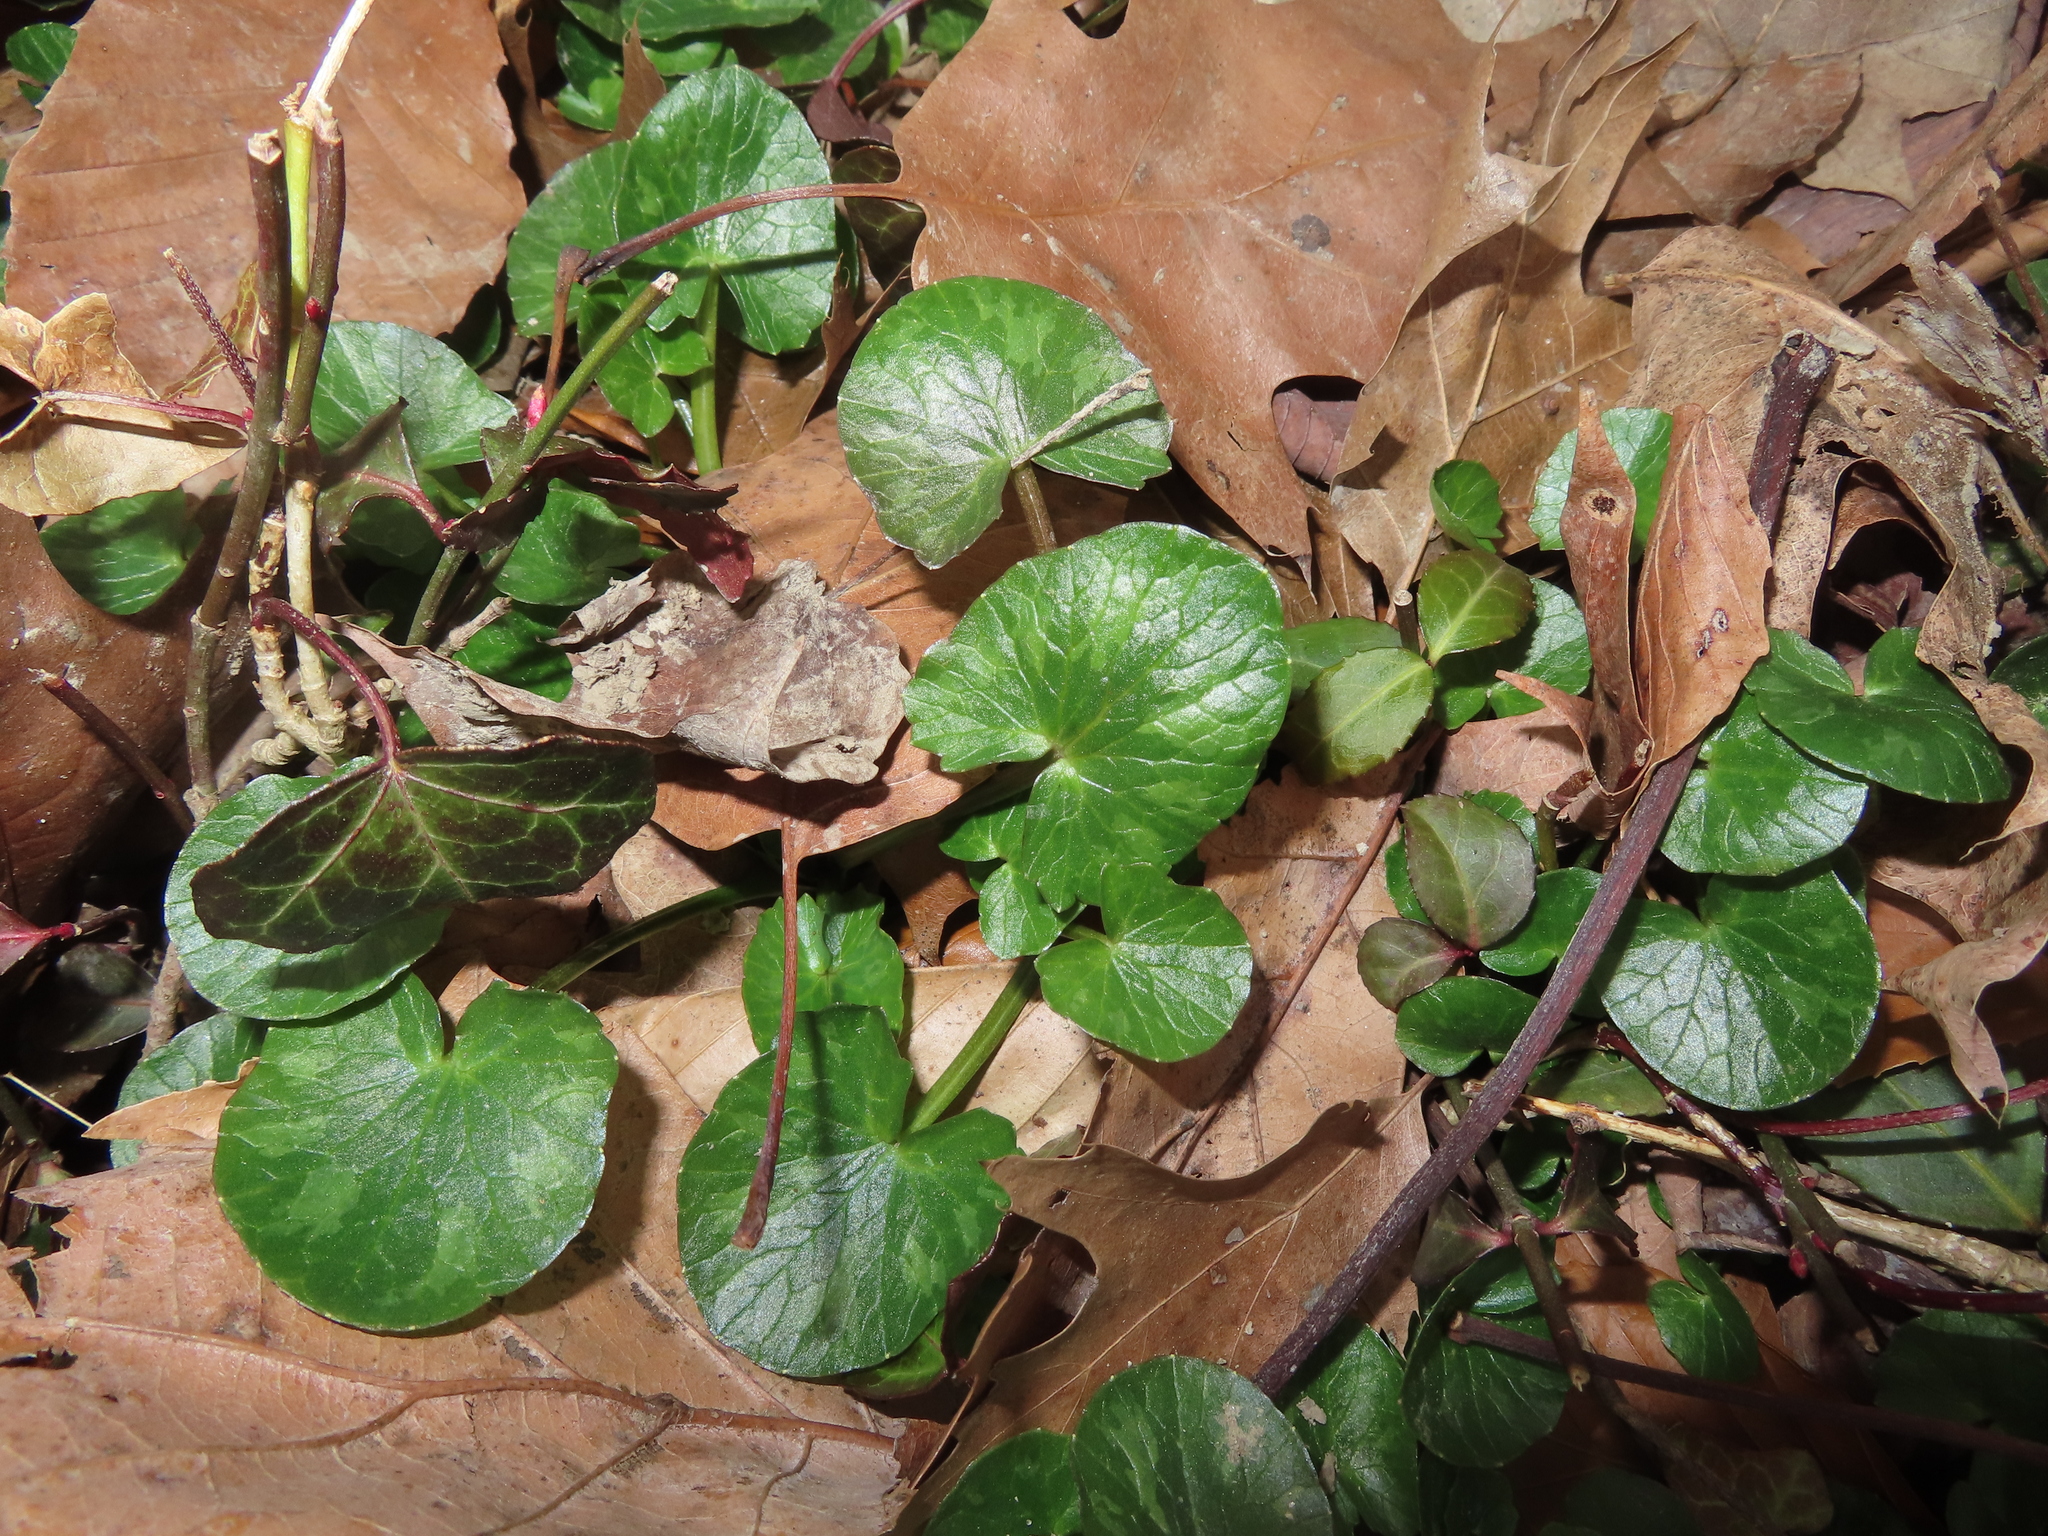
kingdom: Plantae
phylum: Tracheophyta
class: Magnoliopsida
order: Ranunculales
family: Ranunculaceae
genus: Ficaria
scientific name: Ficaria verna
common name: Lesser celandine
